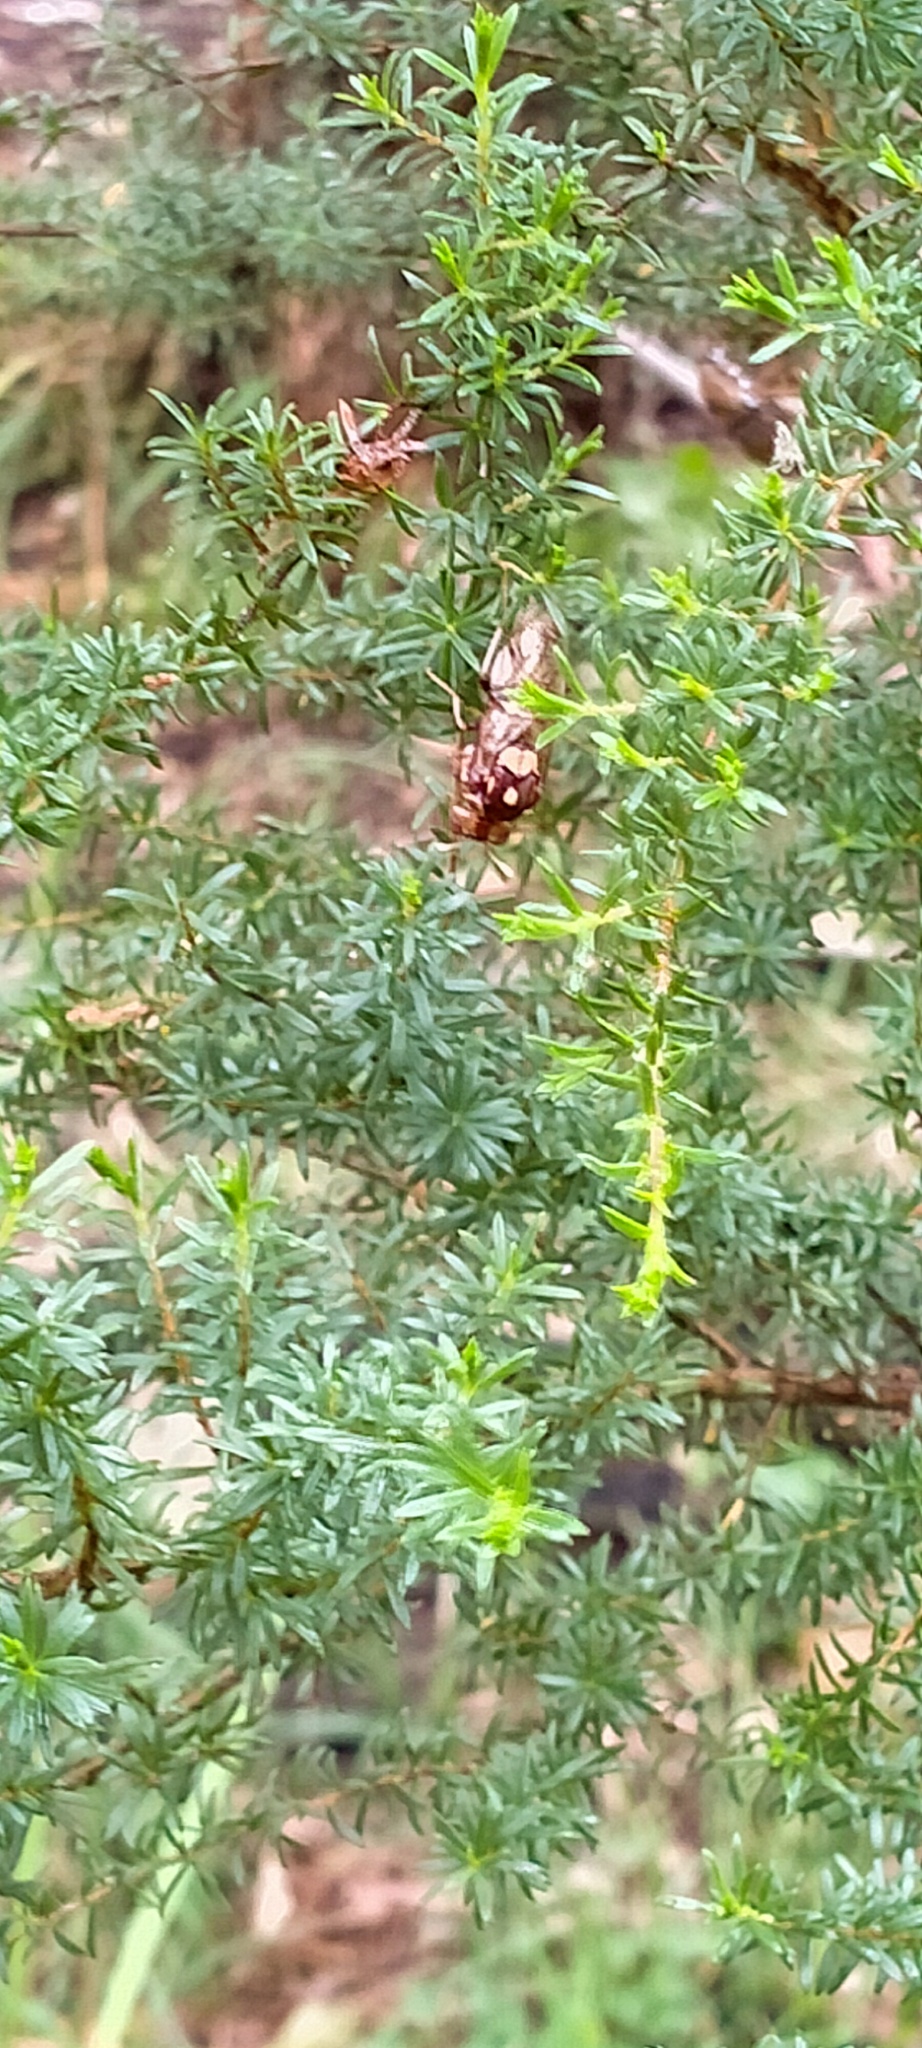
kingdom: Animalia
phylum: Arthropoda
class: Insecta
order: Hymenoptera
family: Pergidae
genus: Pergagrapta
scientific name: Pergagrapta polita
